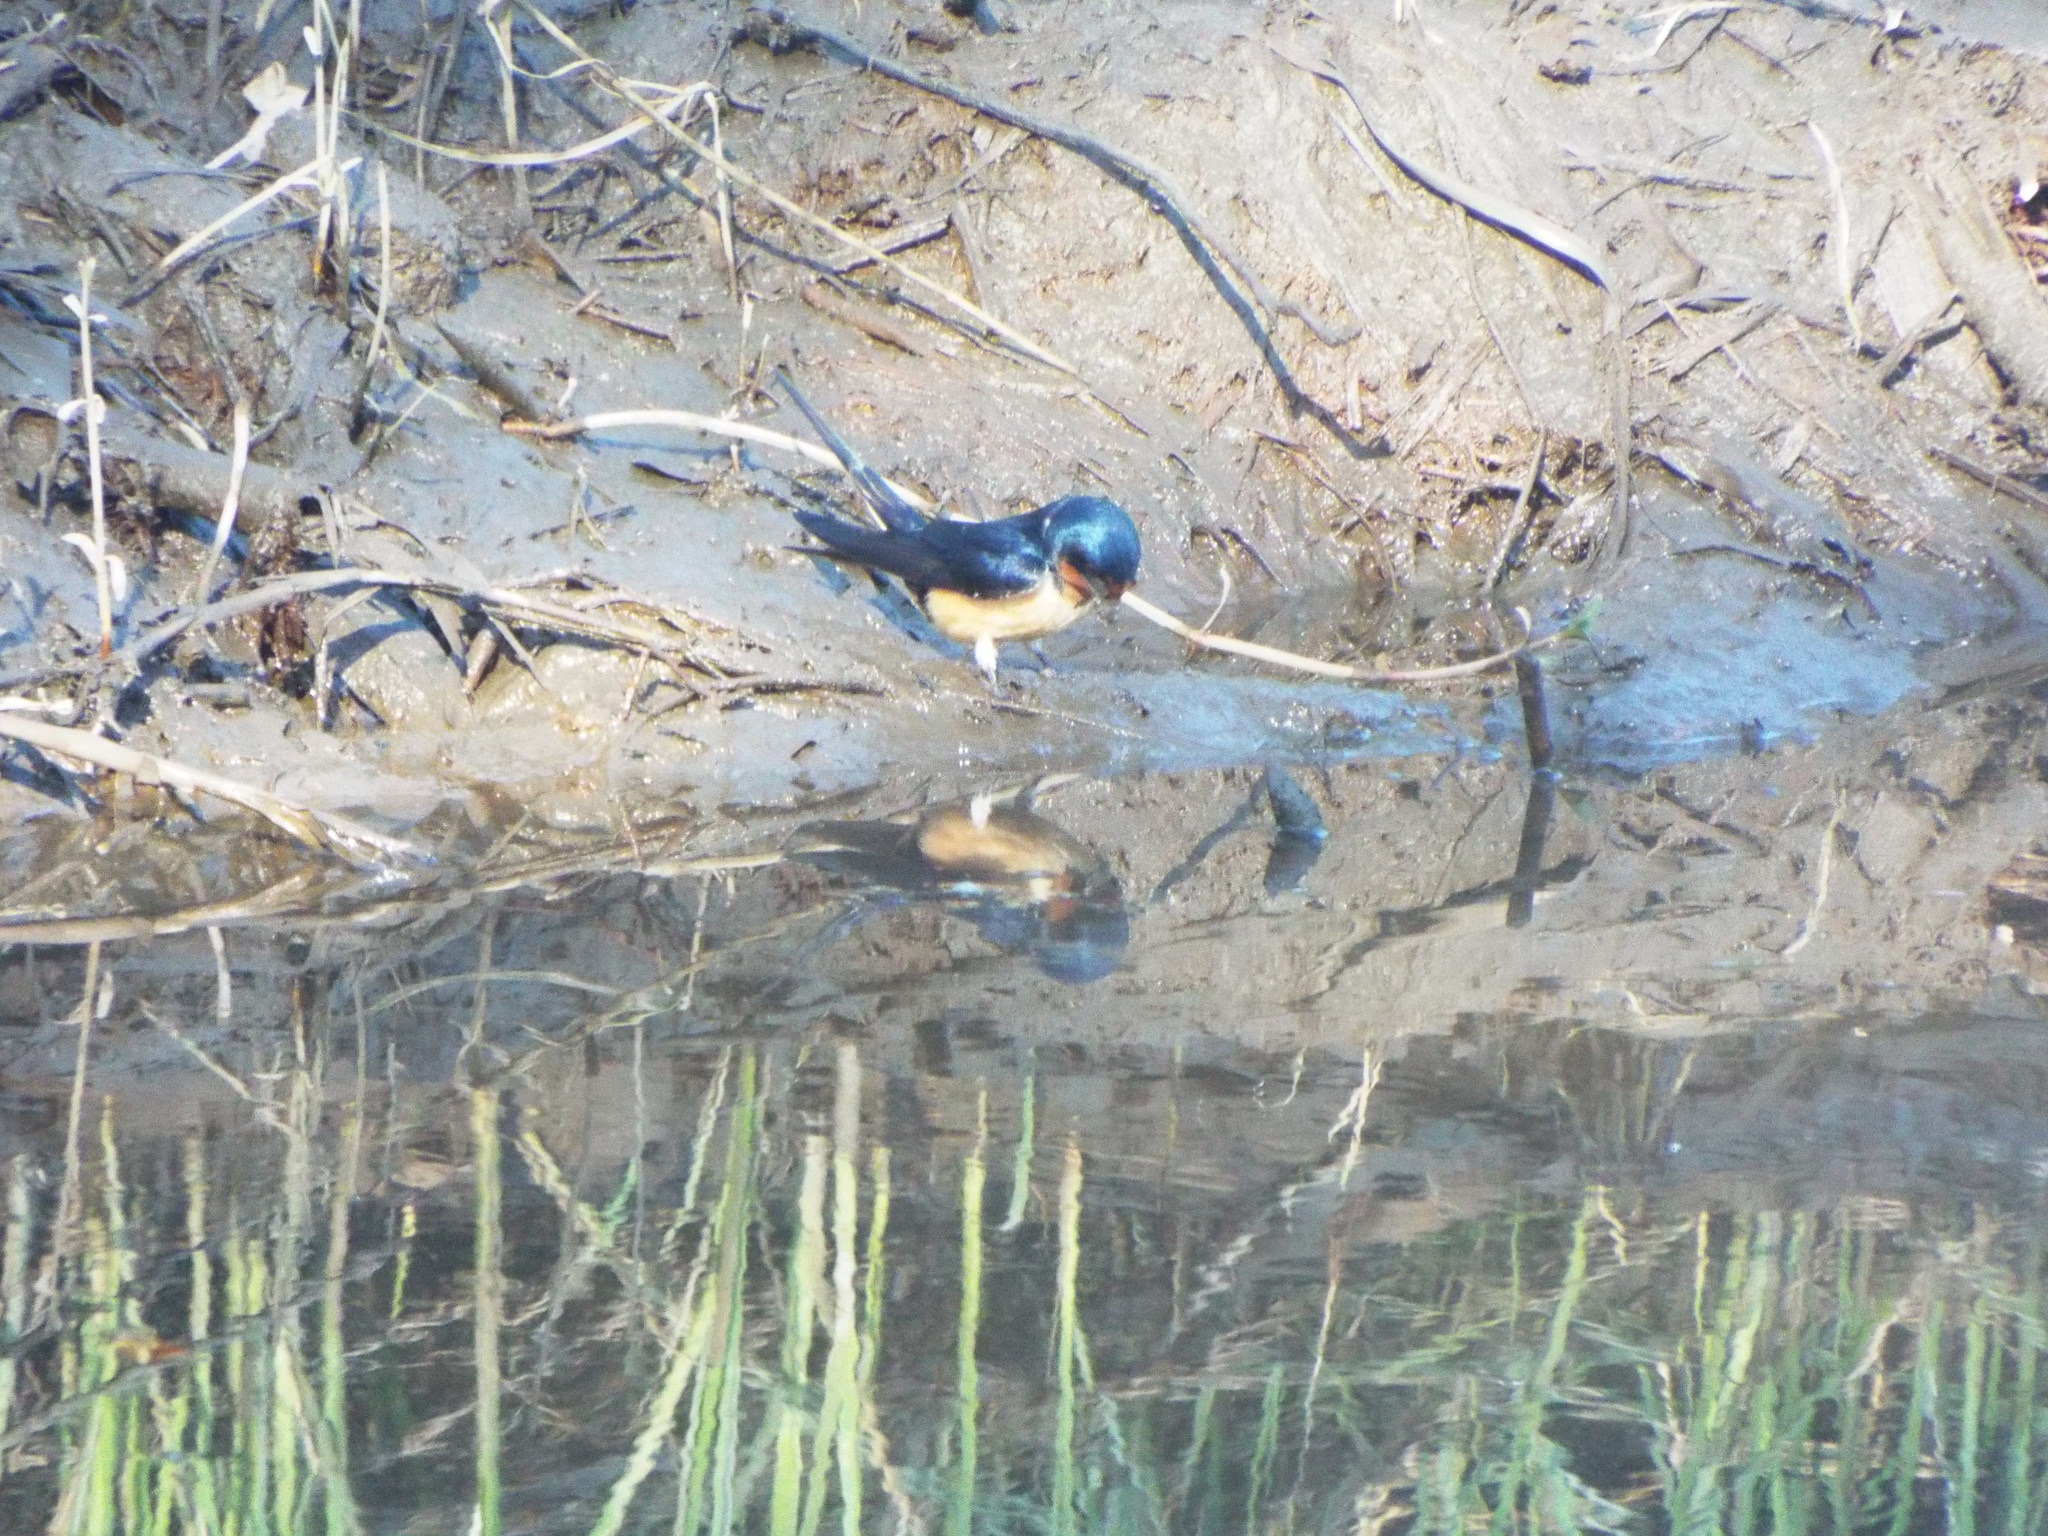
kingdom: Animalia
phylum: Chordata
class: Aves
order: Passeriformes
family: Hirundinidae
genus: Hirundo
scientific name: Hirundo rustica
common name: Barn swallow
